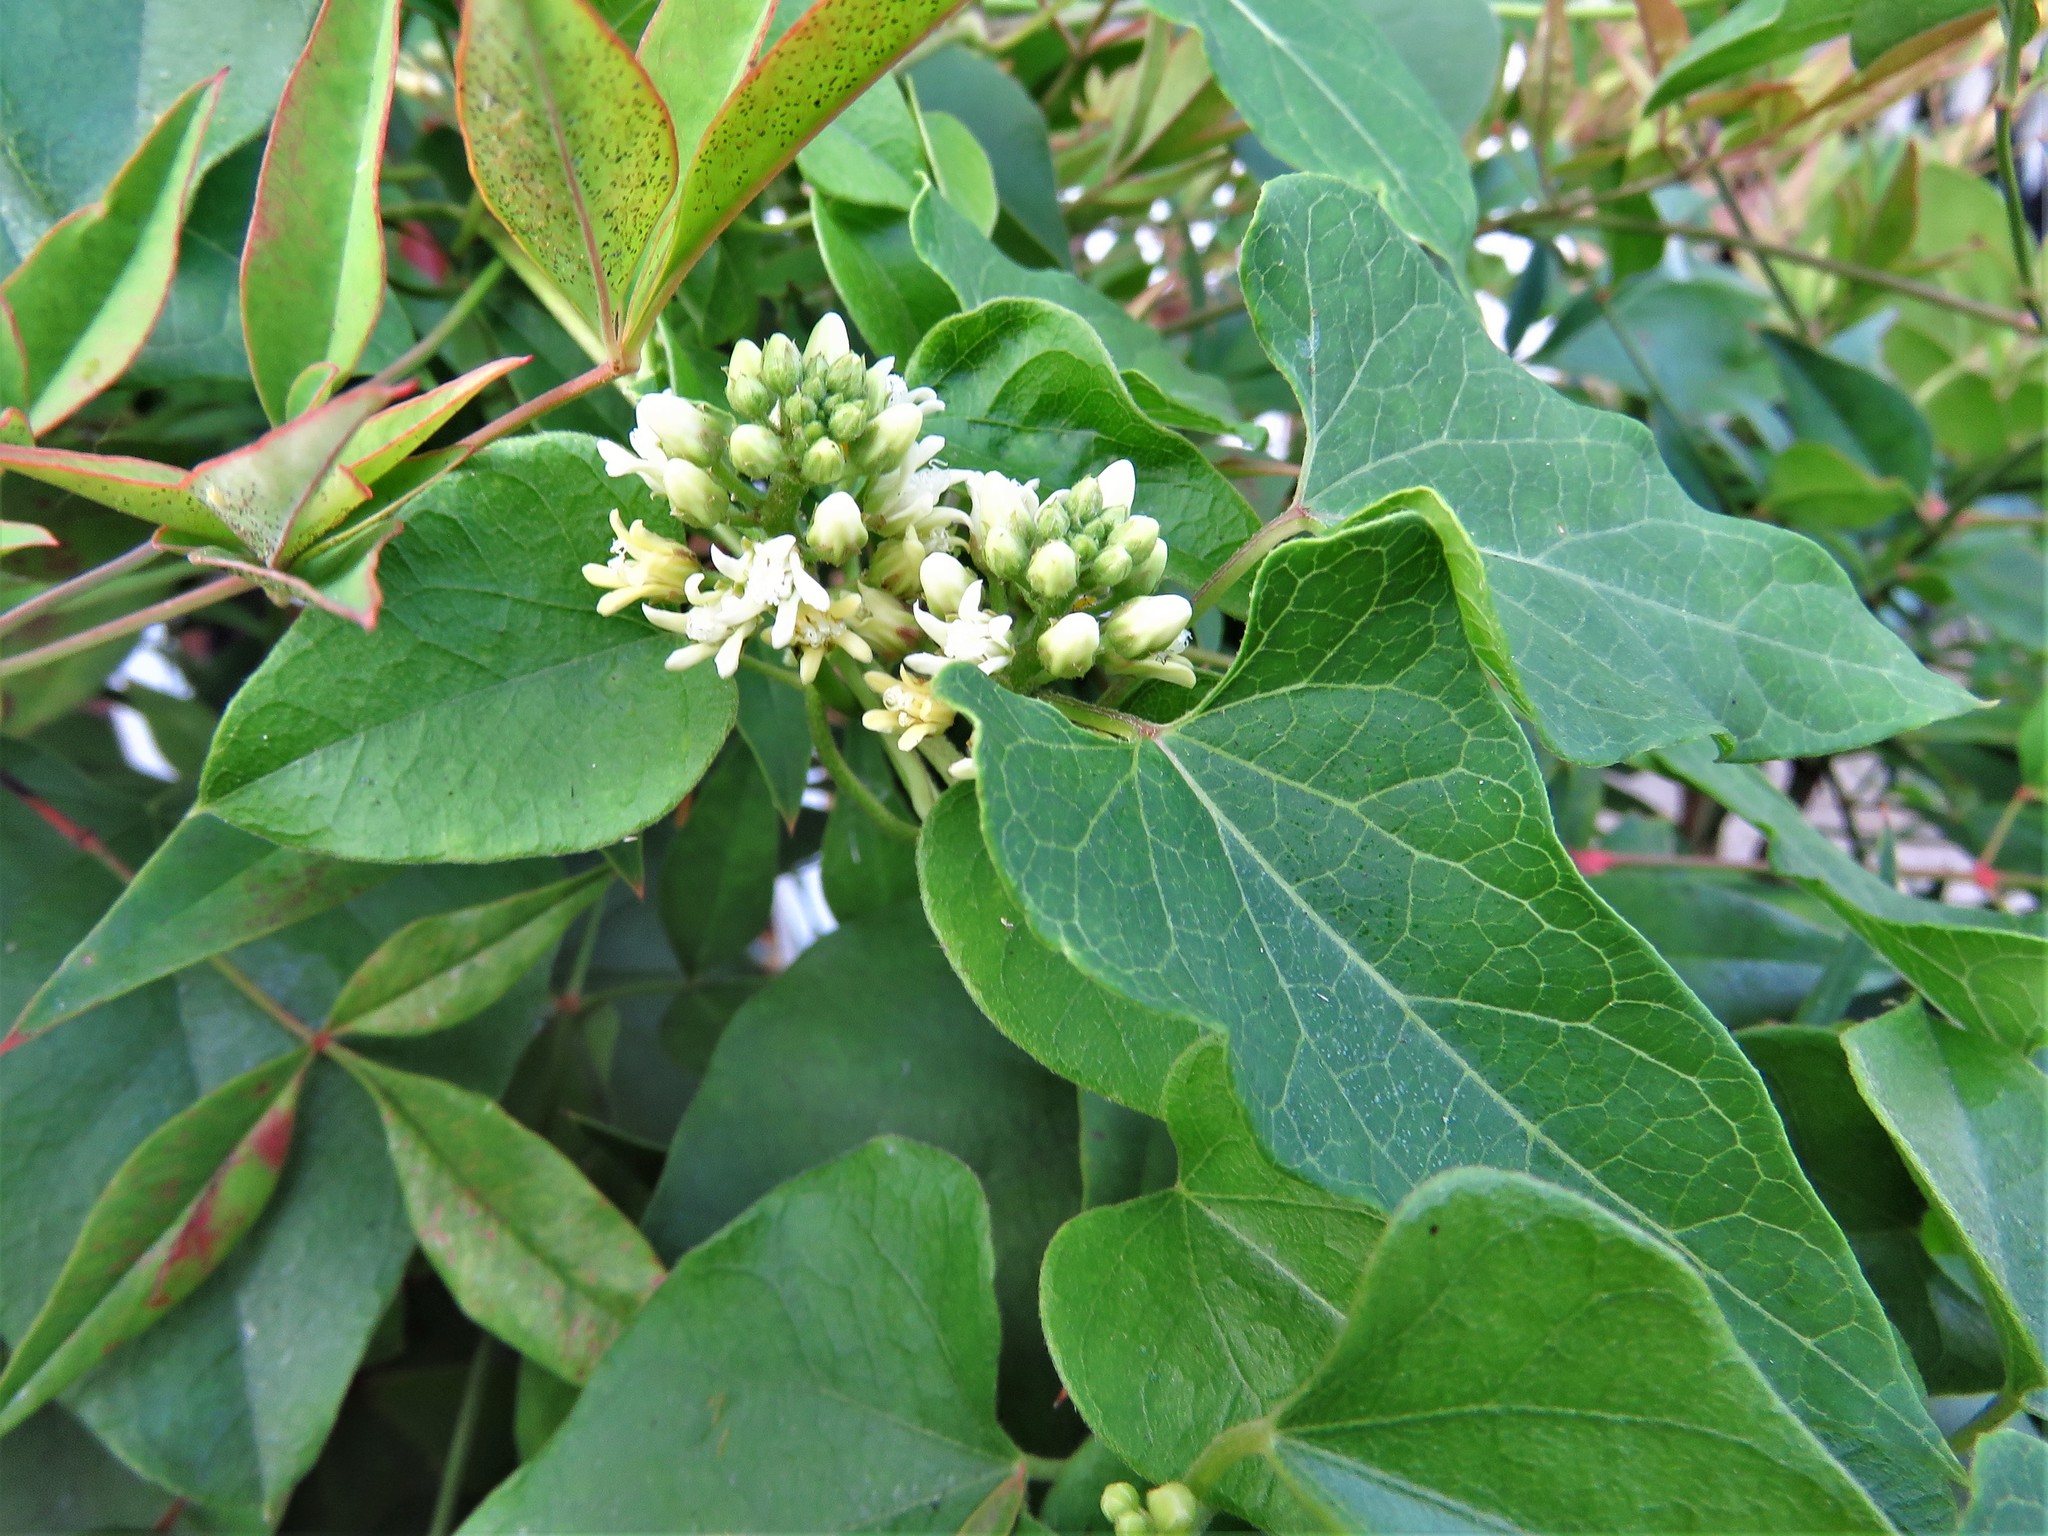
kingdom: Plantae
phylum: Tracheophyta
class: Magnoliopsida
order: Gentianales
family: Apocynaceae
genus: Cynanchum
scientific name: Cynanchum laeve
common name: Sandvine
